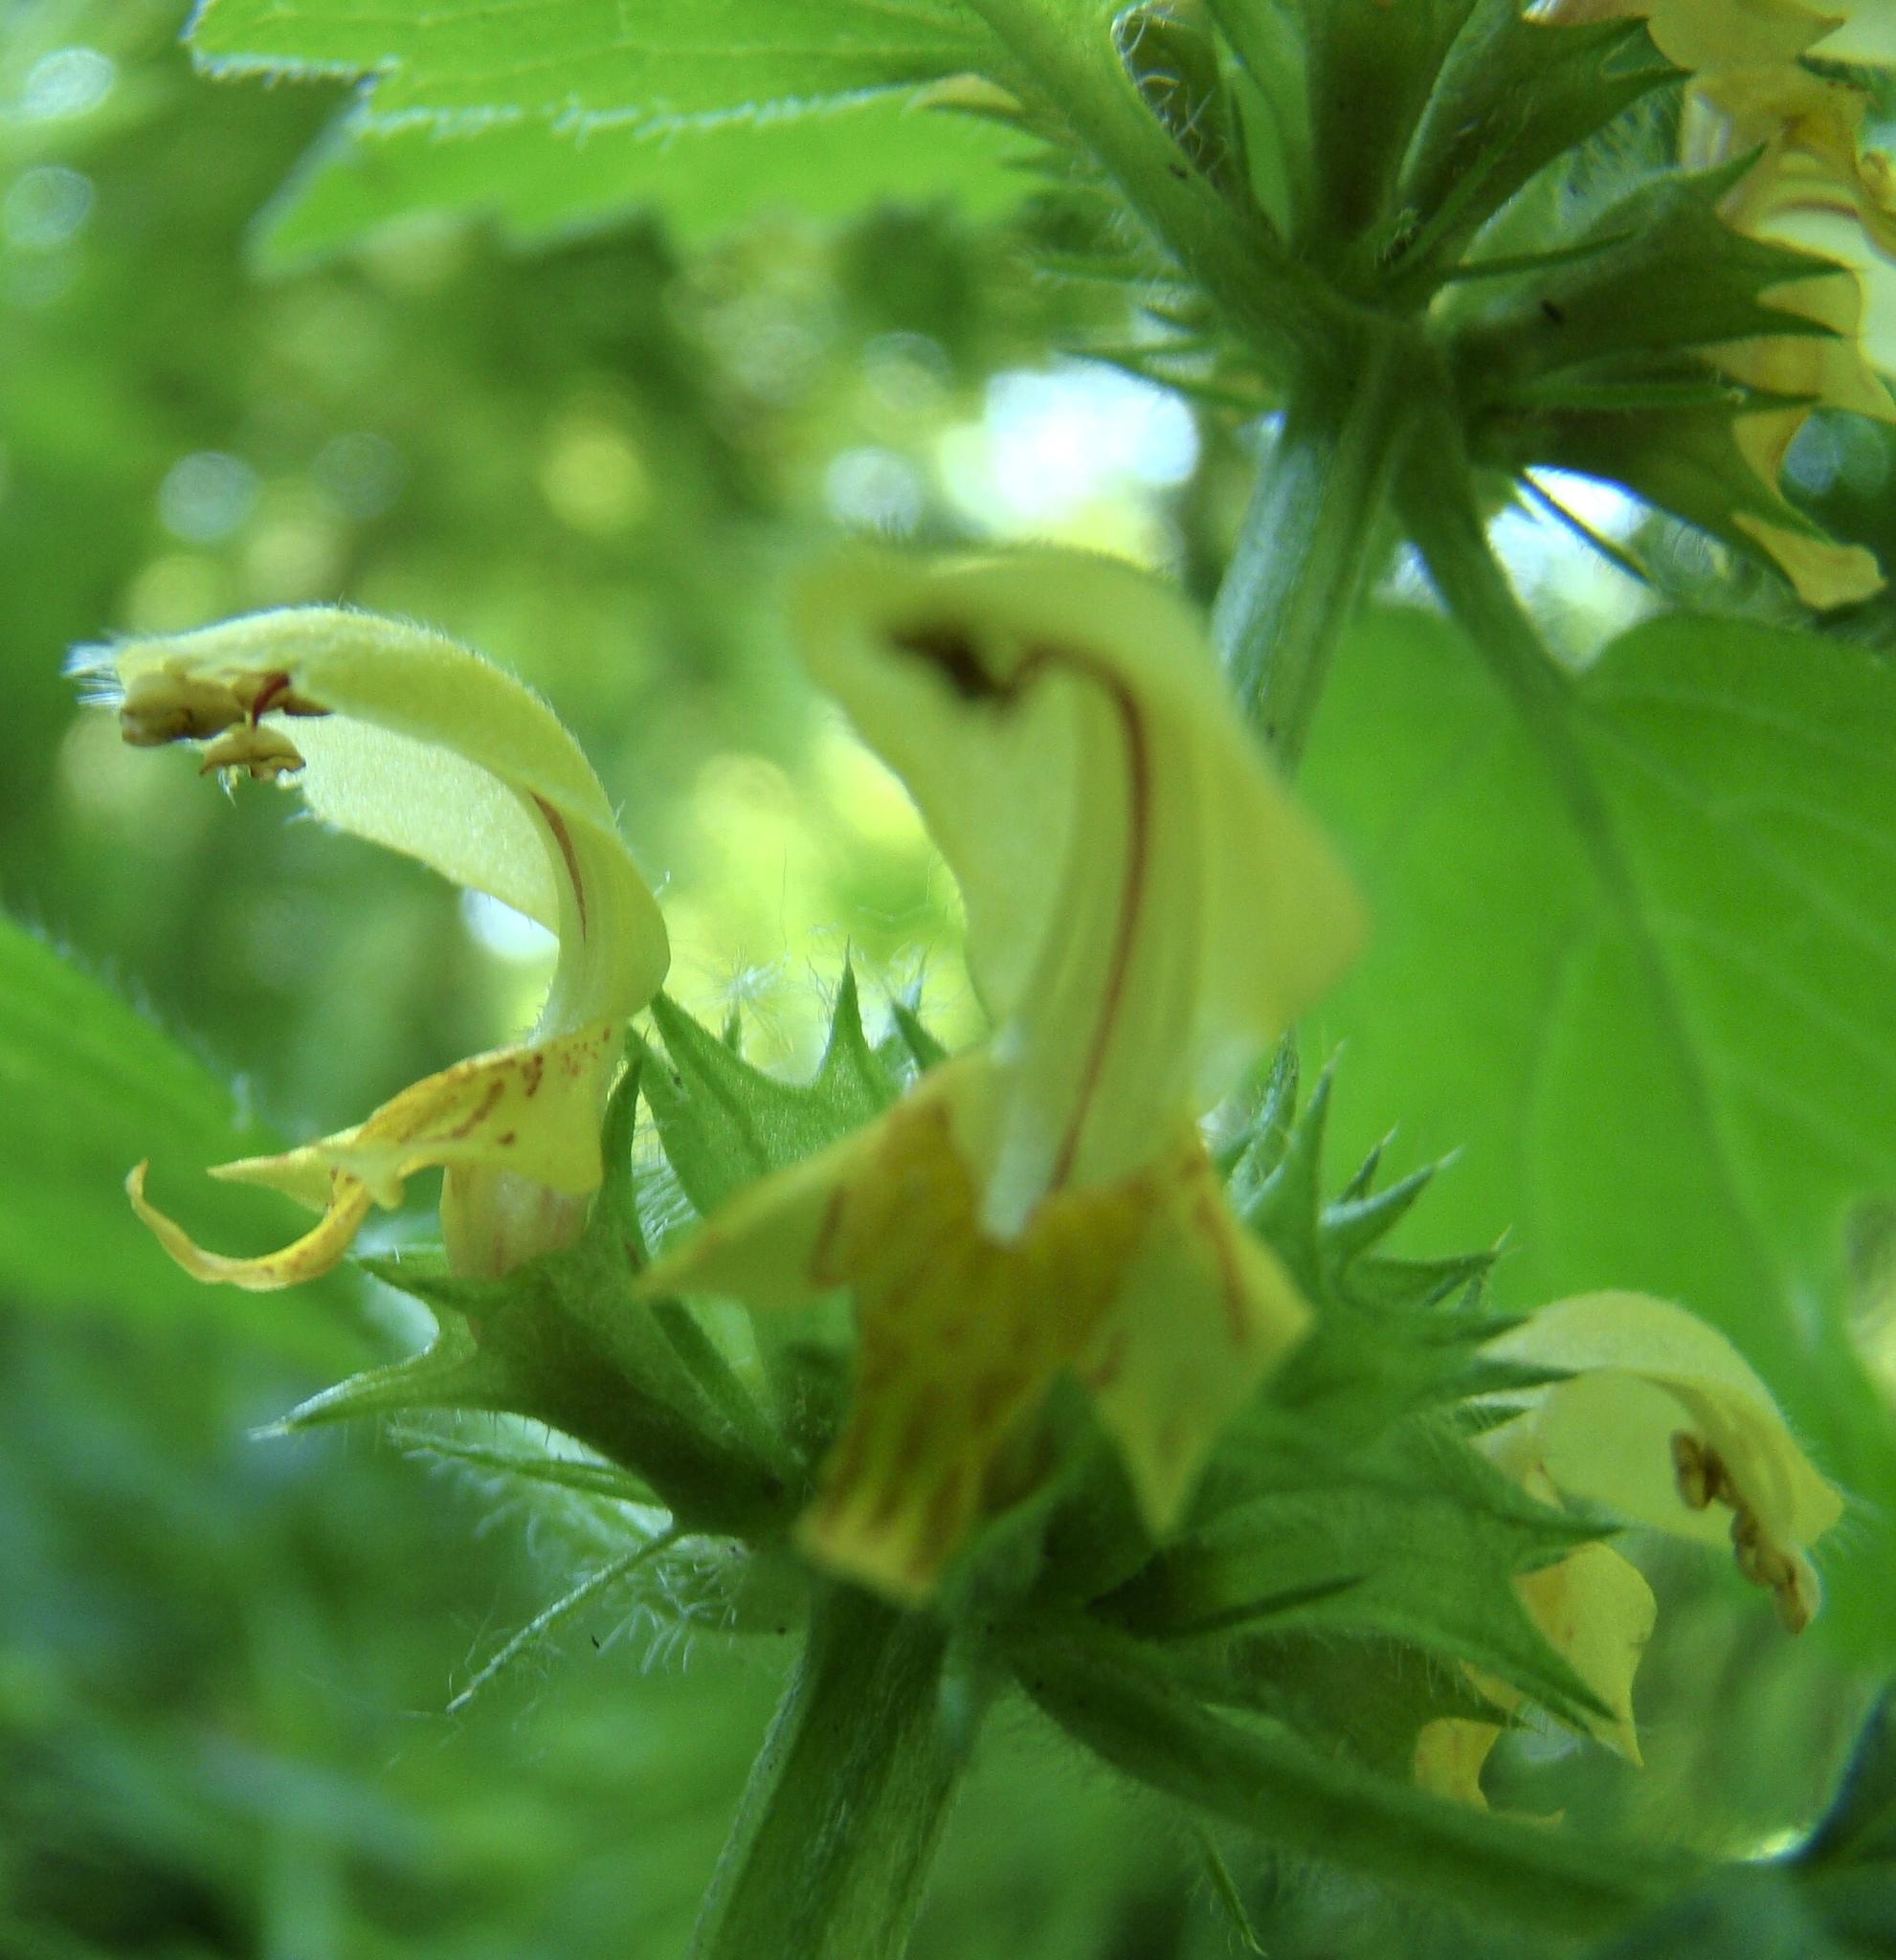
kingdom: Plantae
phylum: Tracheophyta
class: Magnoliopsida
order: Lamiales
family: Lamiaceae
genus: Lamium
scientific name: Lamium galeobdolon
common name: Yellow archangel
